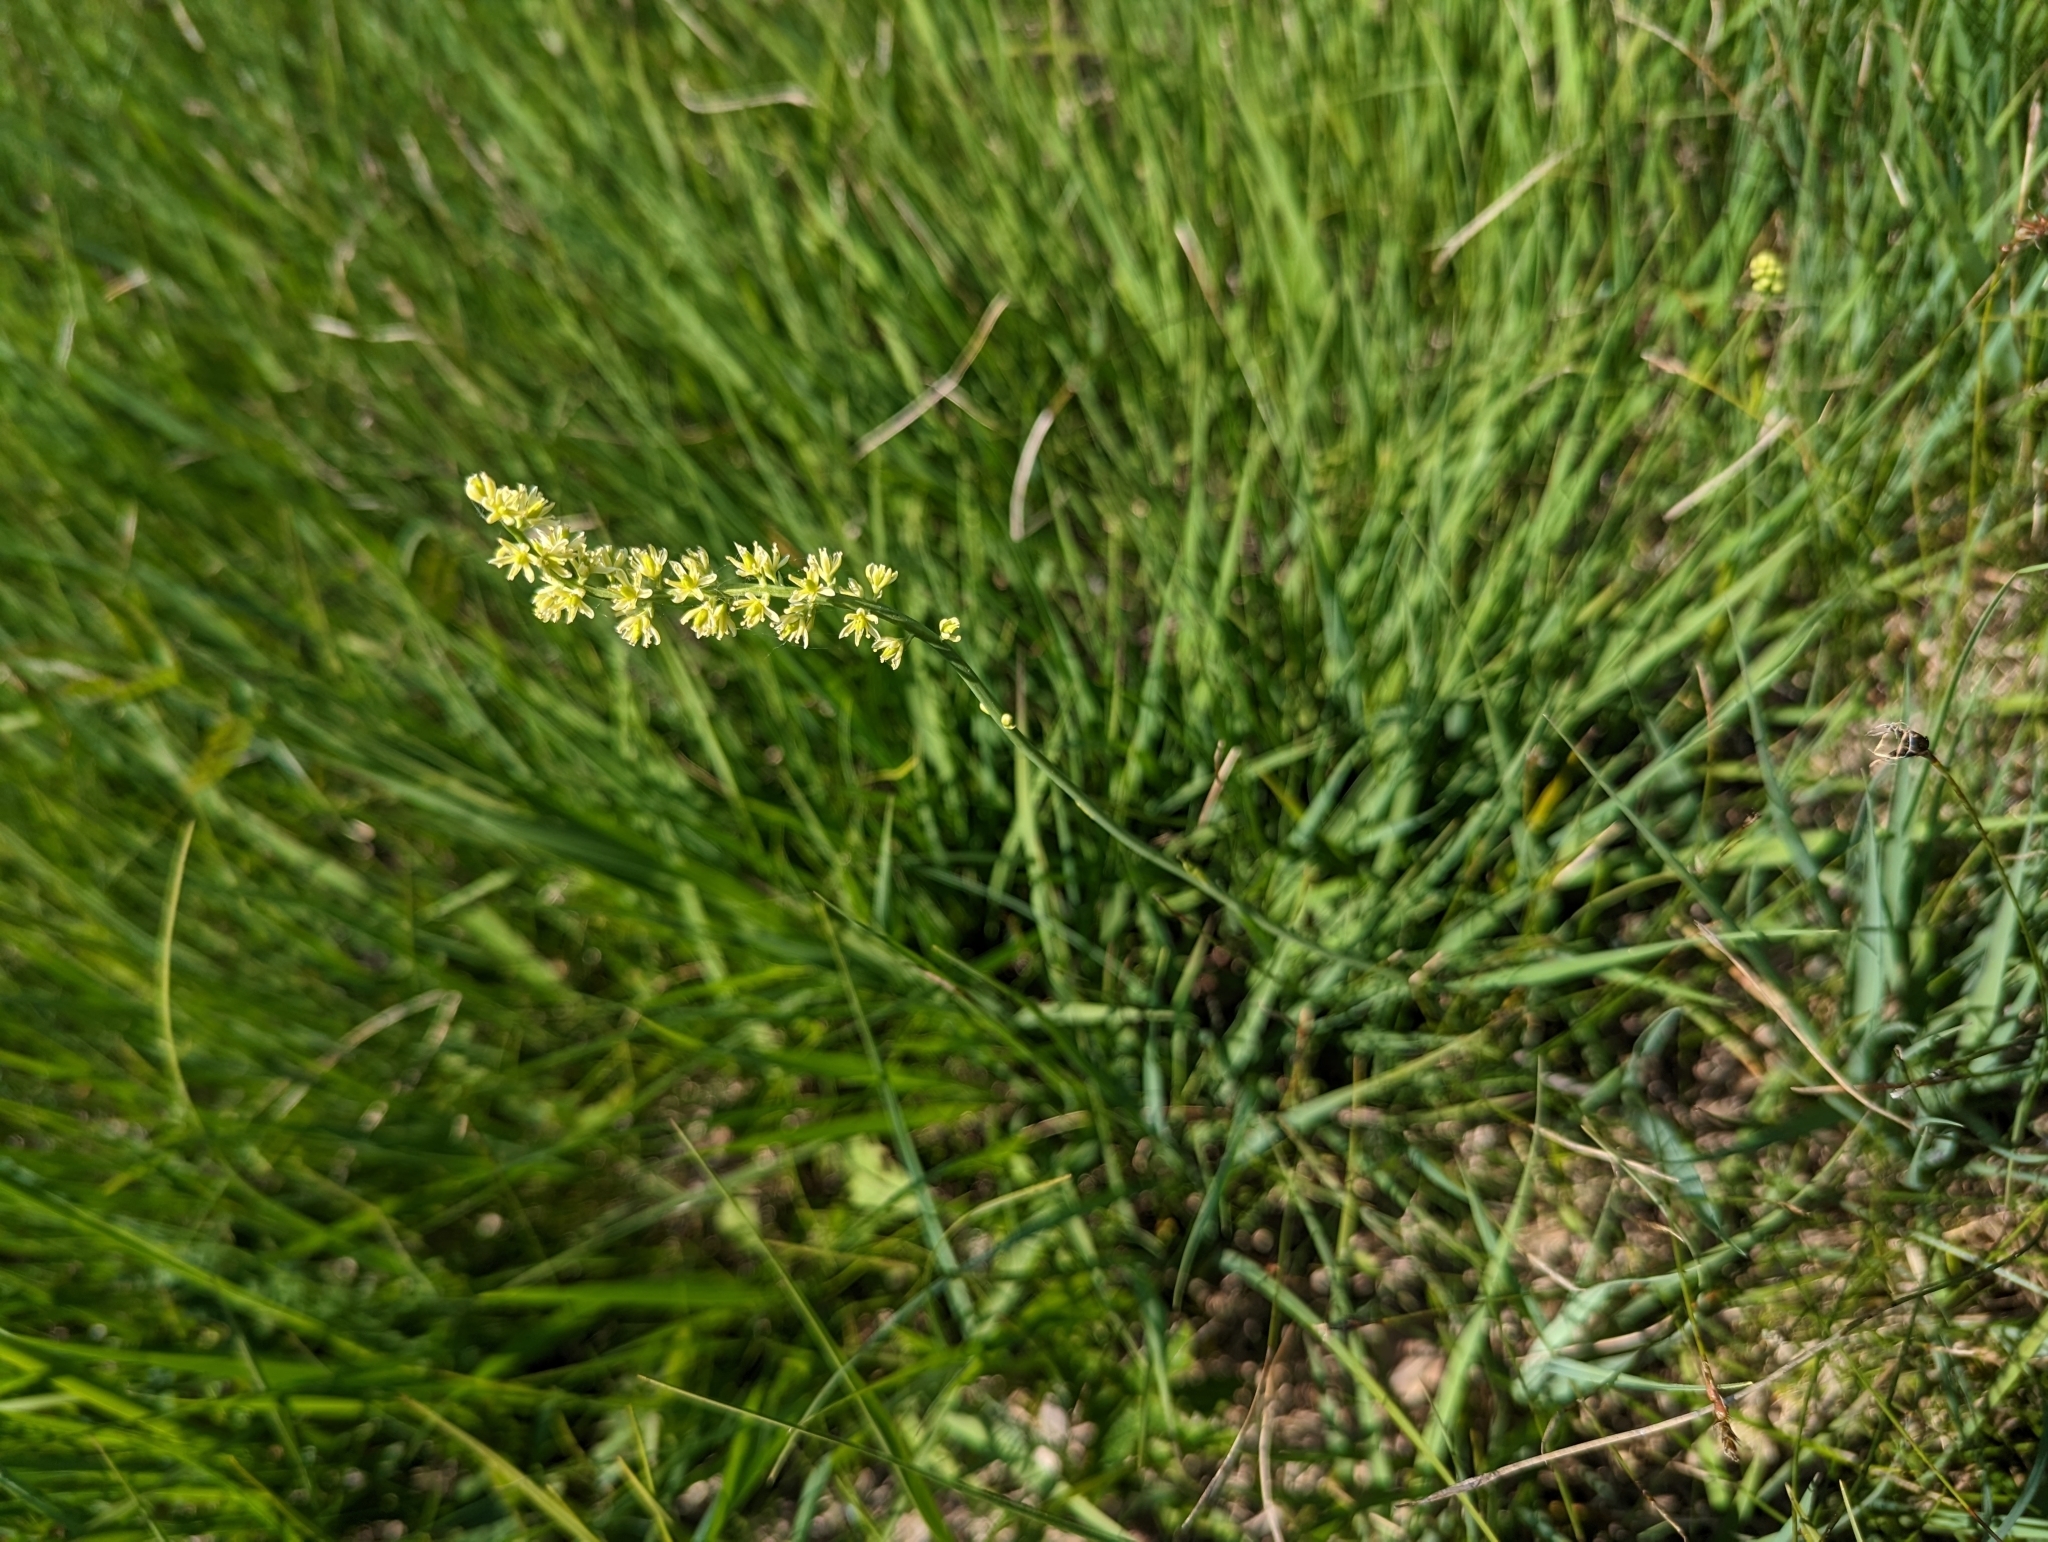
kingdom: Plantae
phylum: Tracheophyta
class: Liliopsida
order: Alismatales
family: Tofieldiaceae
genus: Tofieldia
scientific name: Tofieldia calyculata
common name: German-asphodel
